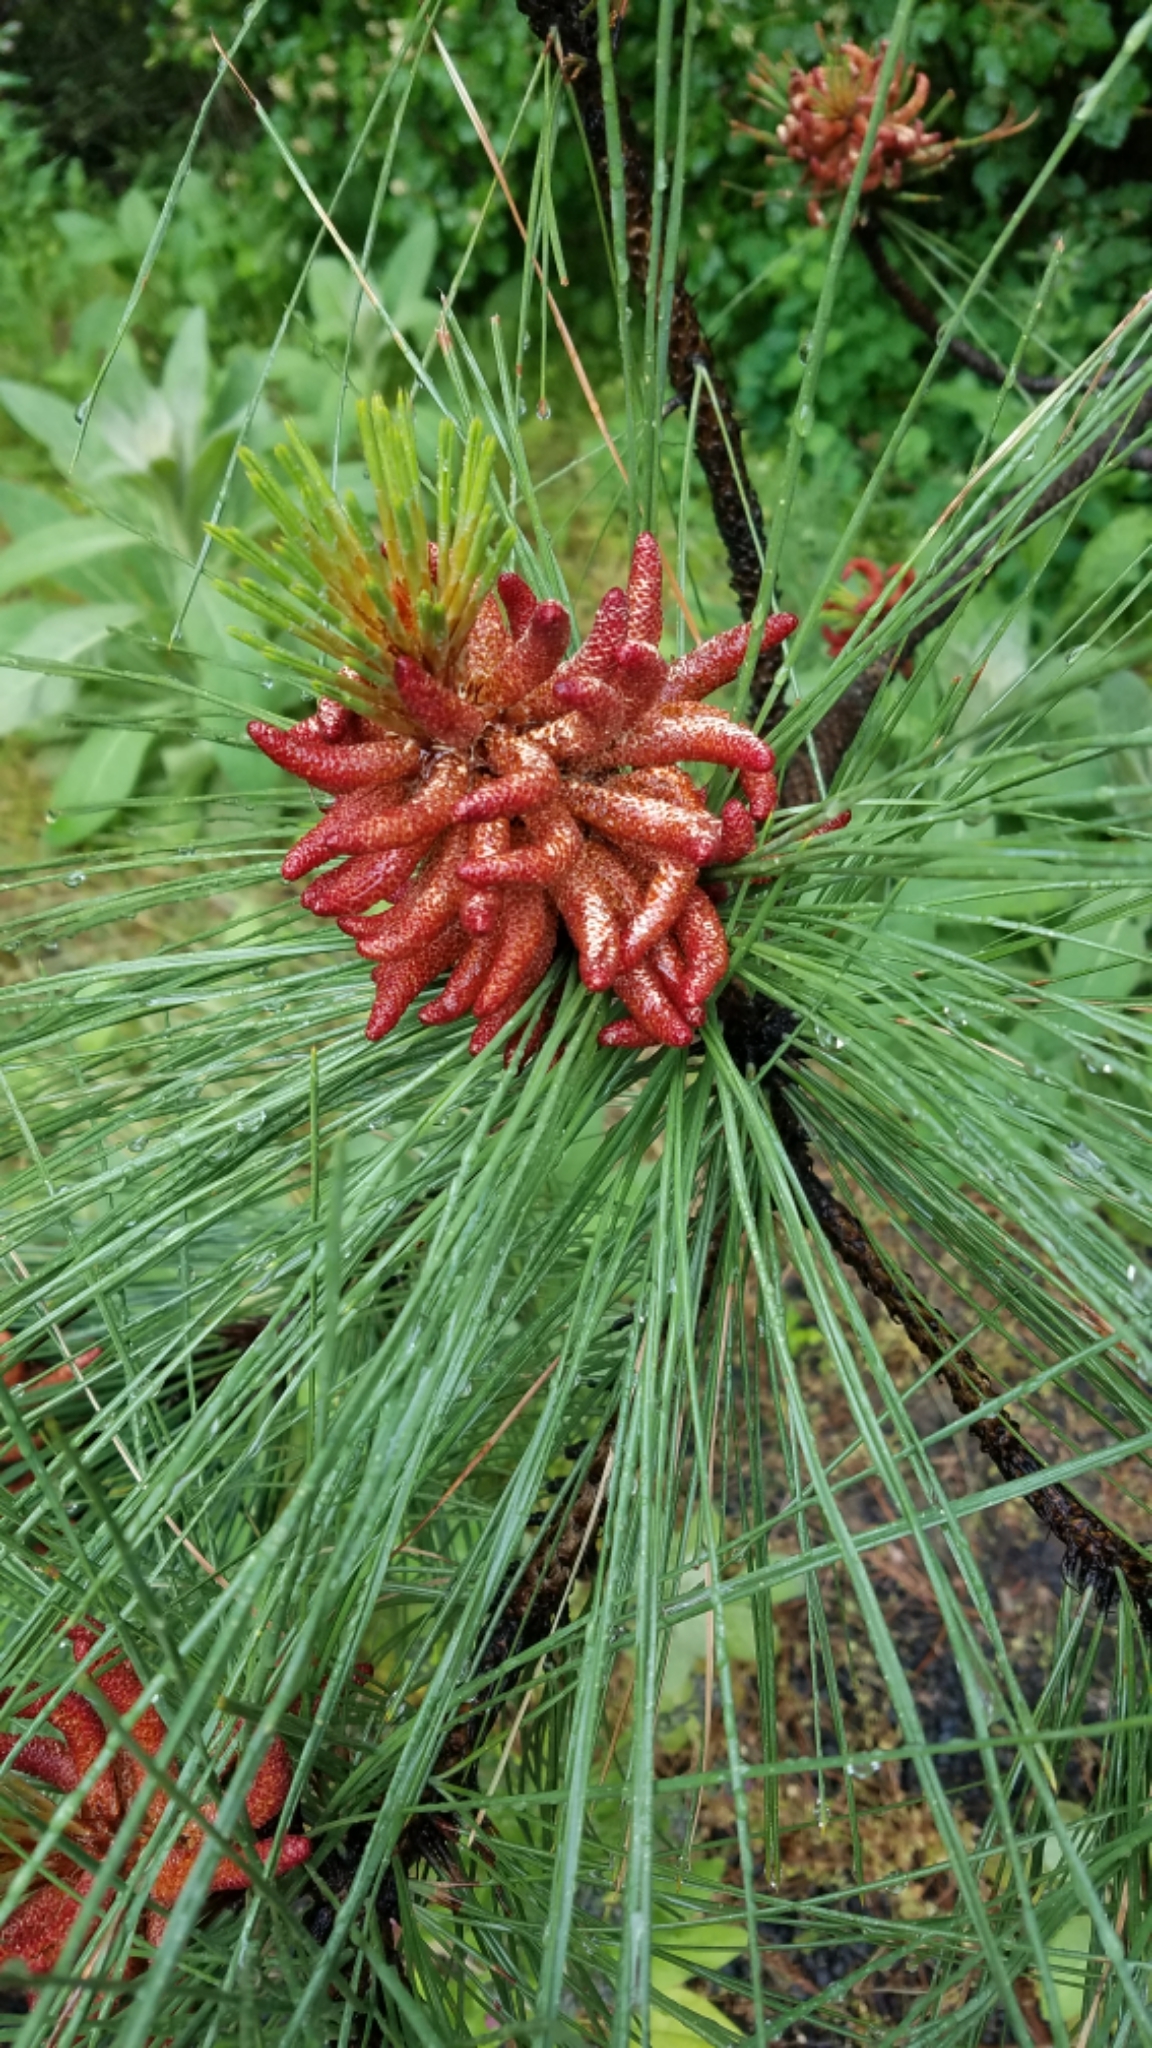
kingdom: Plantae
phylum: Tracheophyta
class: Pinopsida
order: Pinales
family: Pinaceae
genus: Pinus
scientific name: Pinus ponderosa
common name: Western yellow-pine
